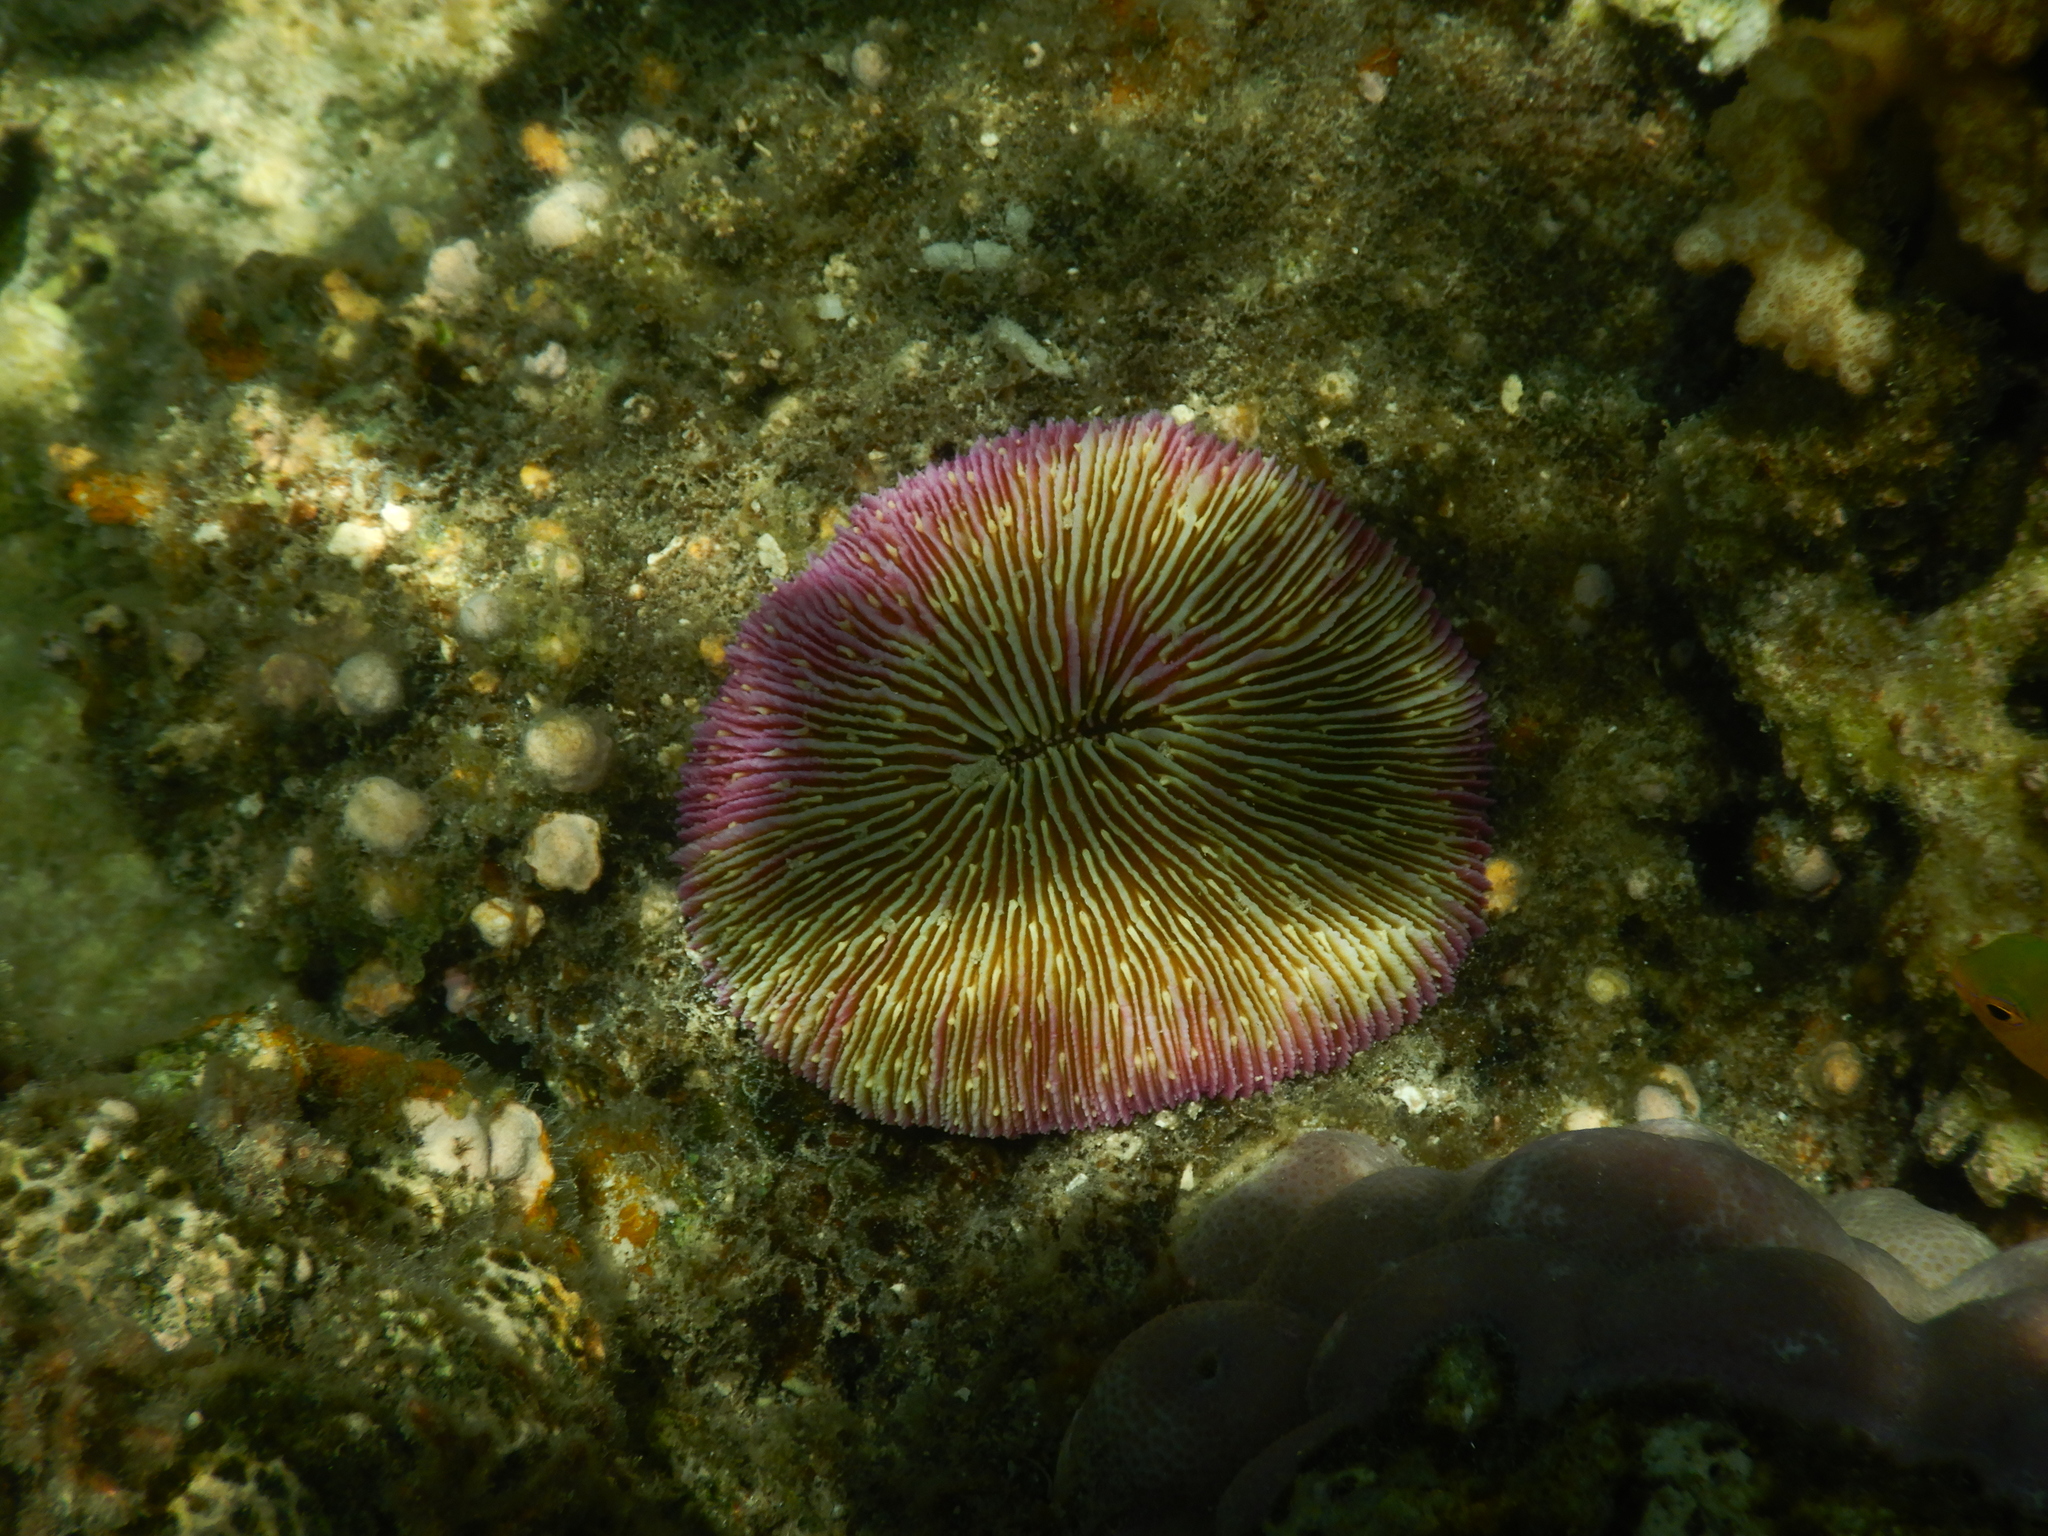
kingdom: Animalia
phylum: Cnidaria
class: Anthozoa
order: Scleractinia
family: Fungiidae
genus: Fungia
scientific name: Fungia fungites
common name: Mushroom coral
